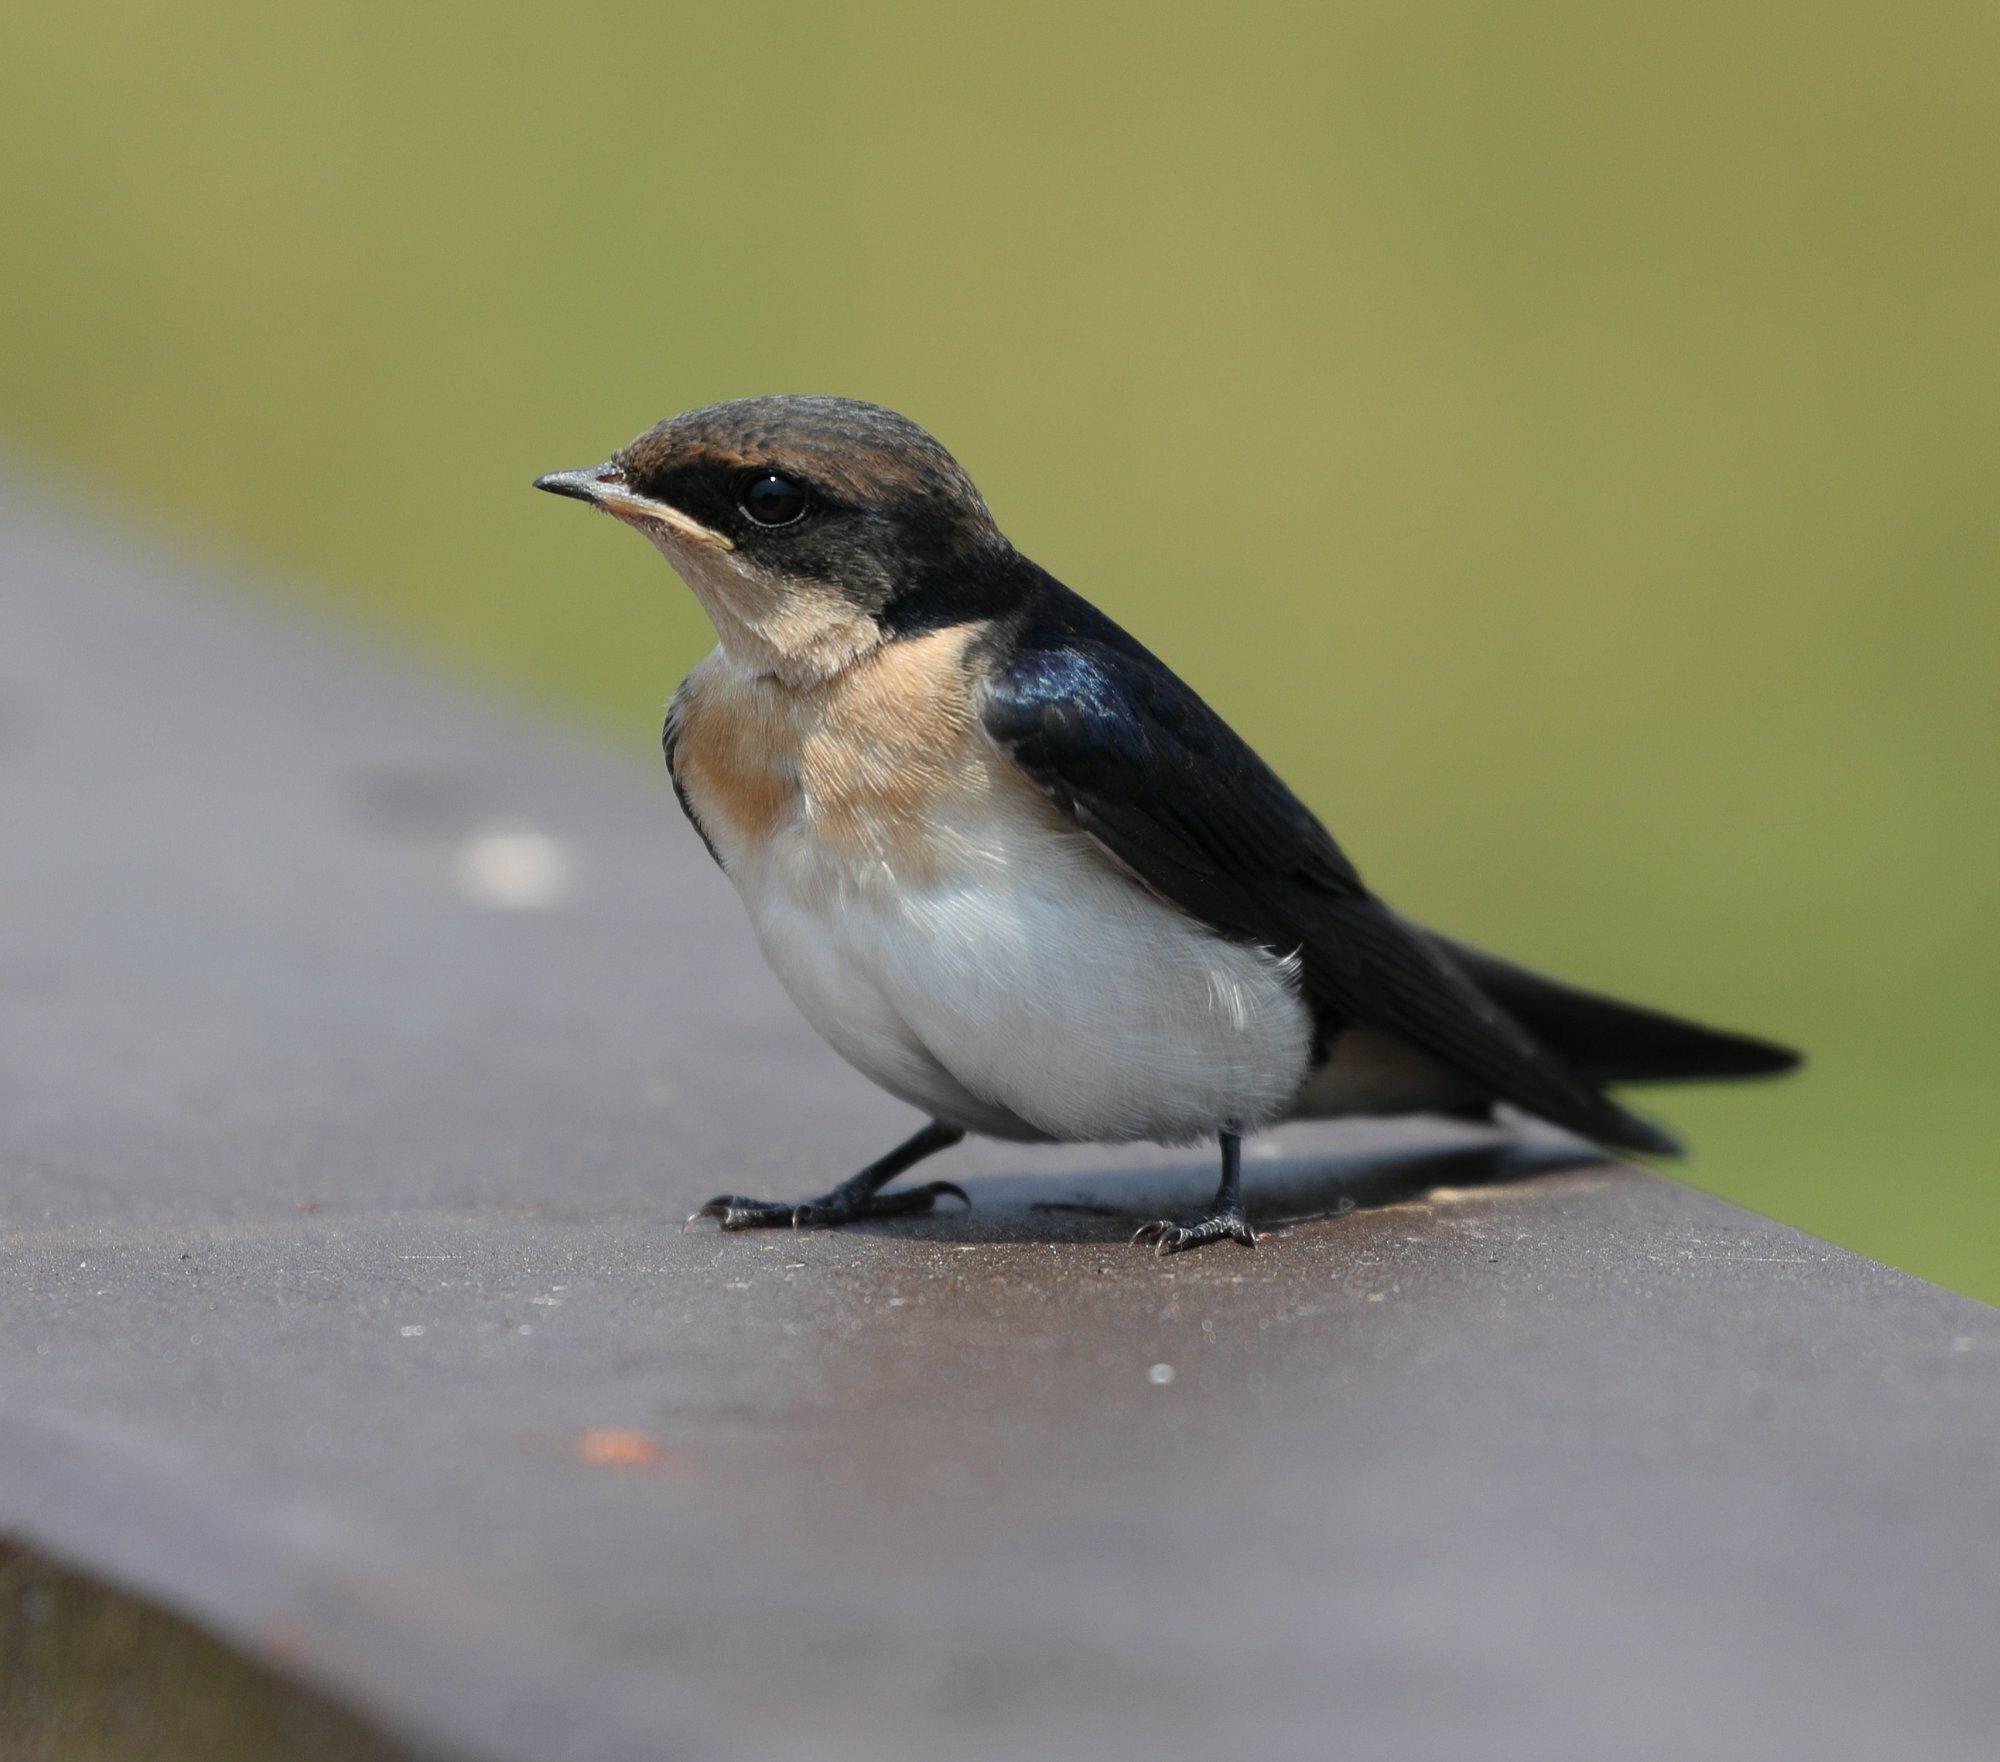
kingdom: Animalia
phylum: Chordata
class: Aves
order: Passeriformes
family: Hirundinidae
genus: Hirundo
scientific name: Hirundo smithii
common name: Wire-tailed swallow
